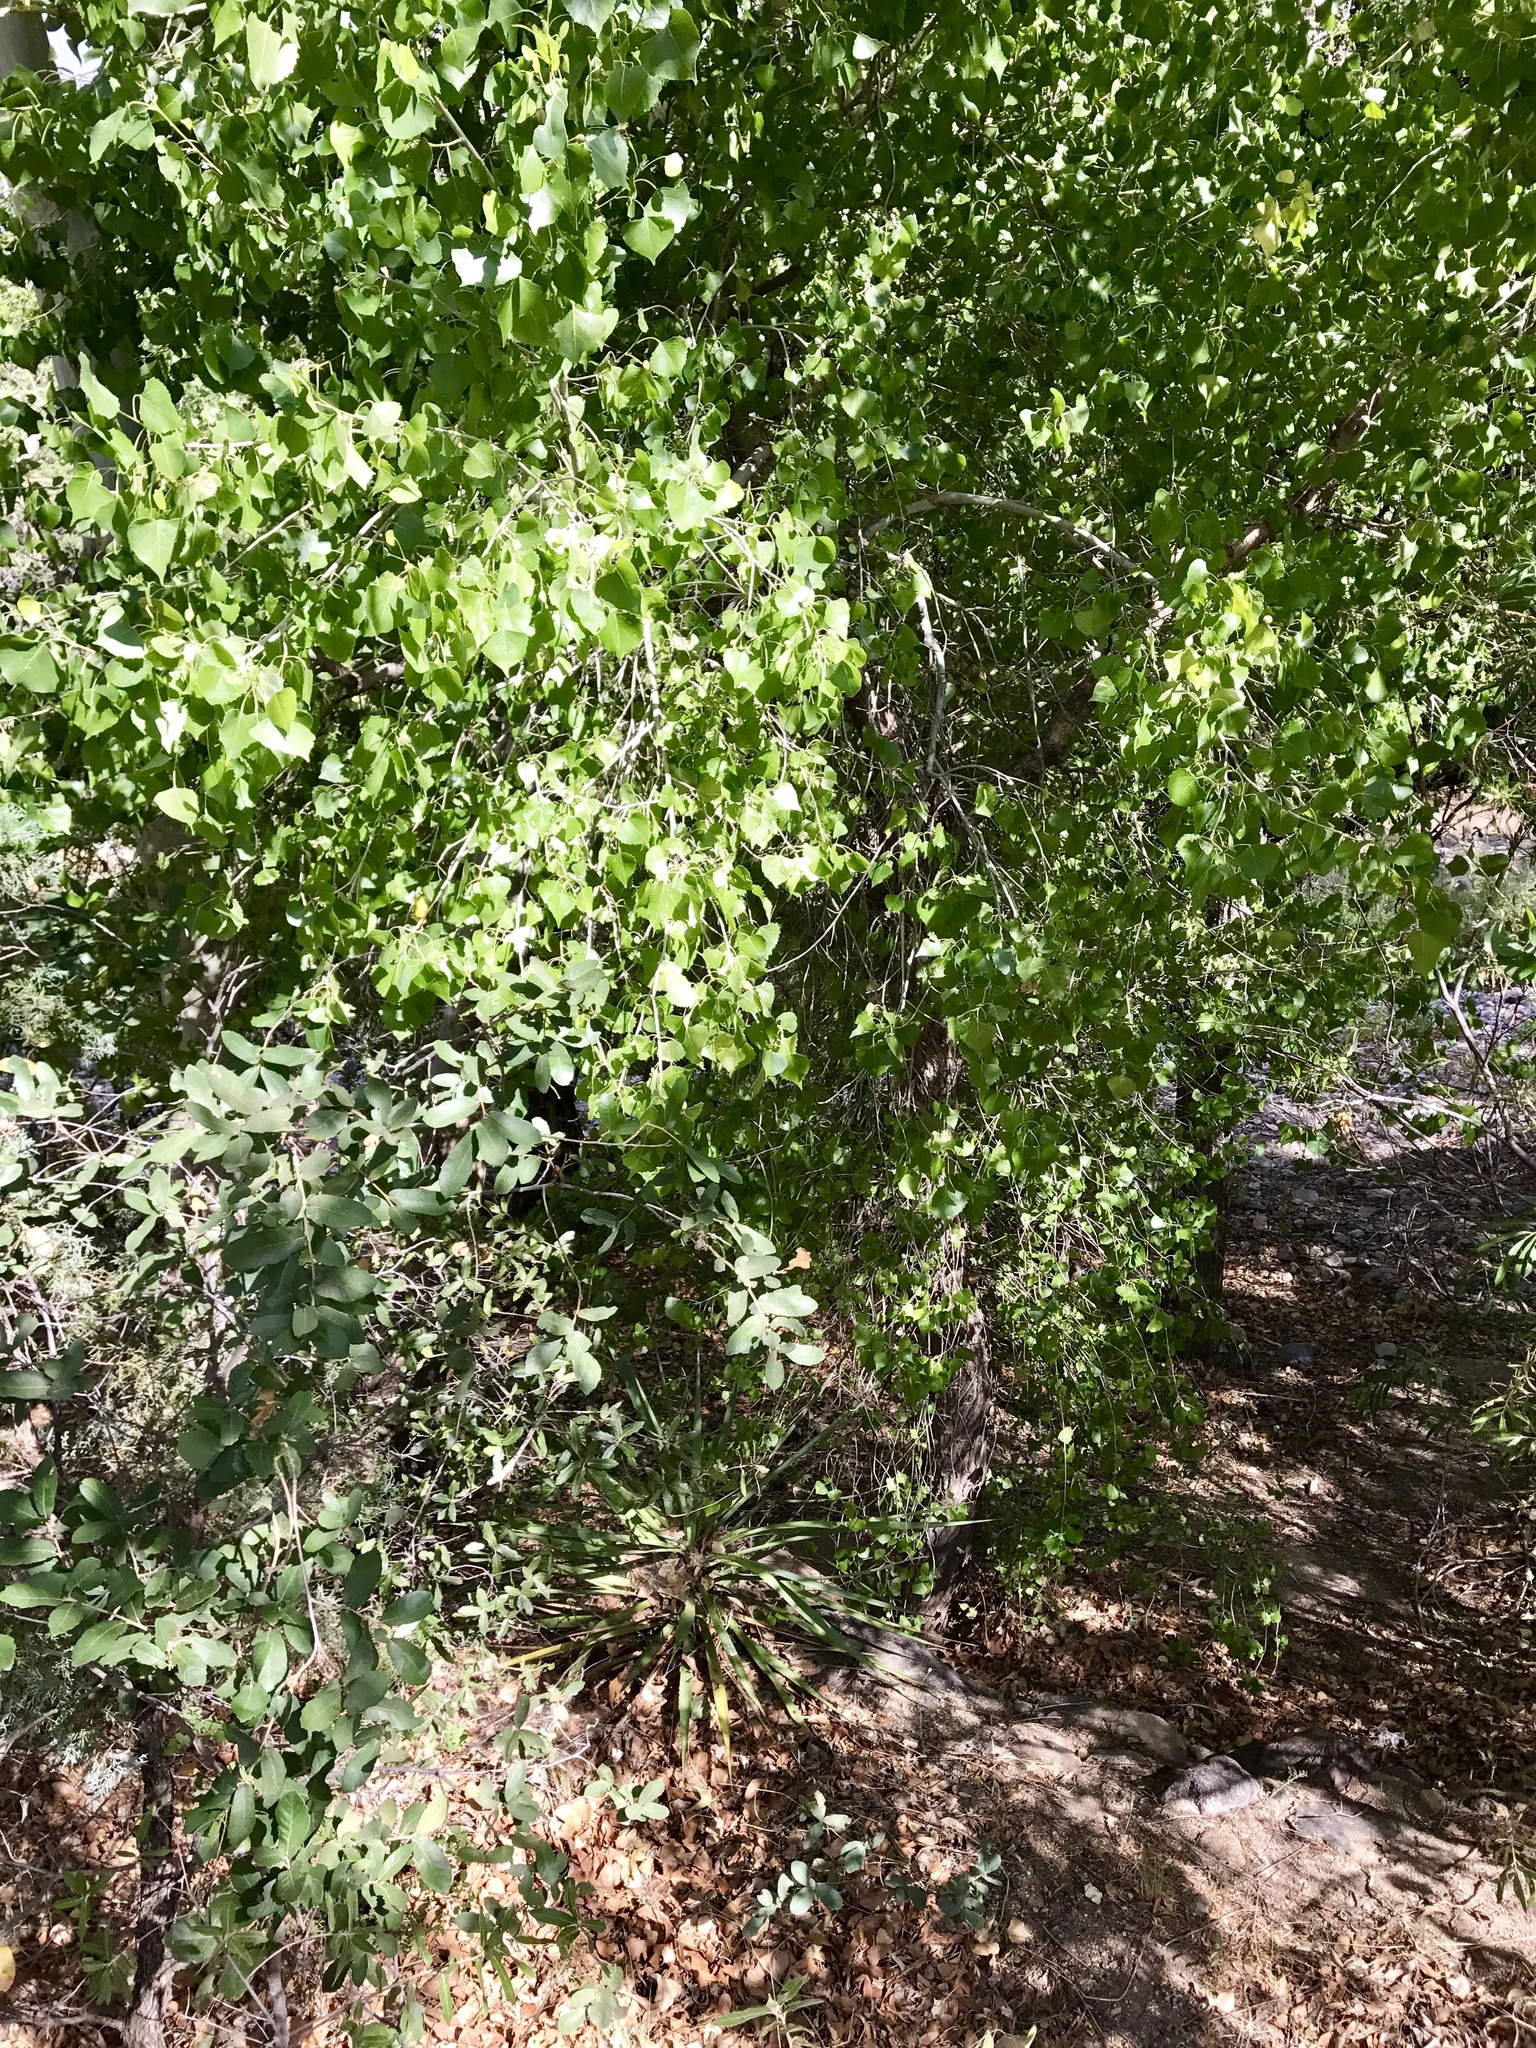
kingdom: Plantae
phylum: Tracheophyta
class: Magnoliopsida
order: Malpighiales
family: Salicaceae
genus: Populus
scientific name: Populus fremontii
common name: Fremont's cottonwood
